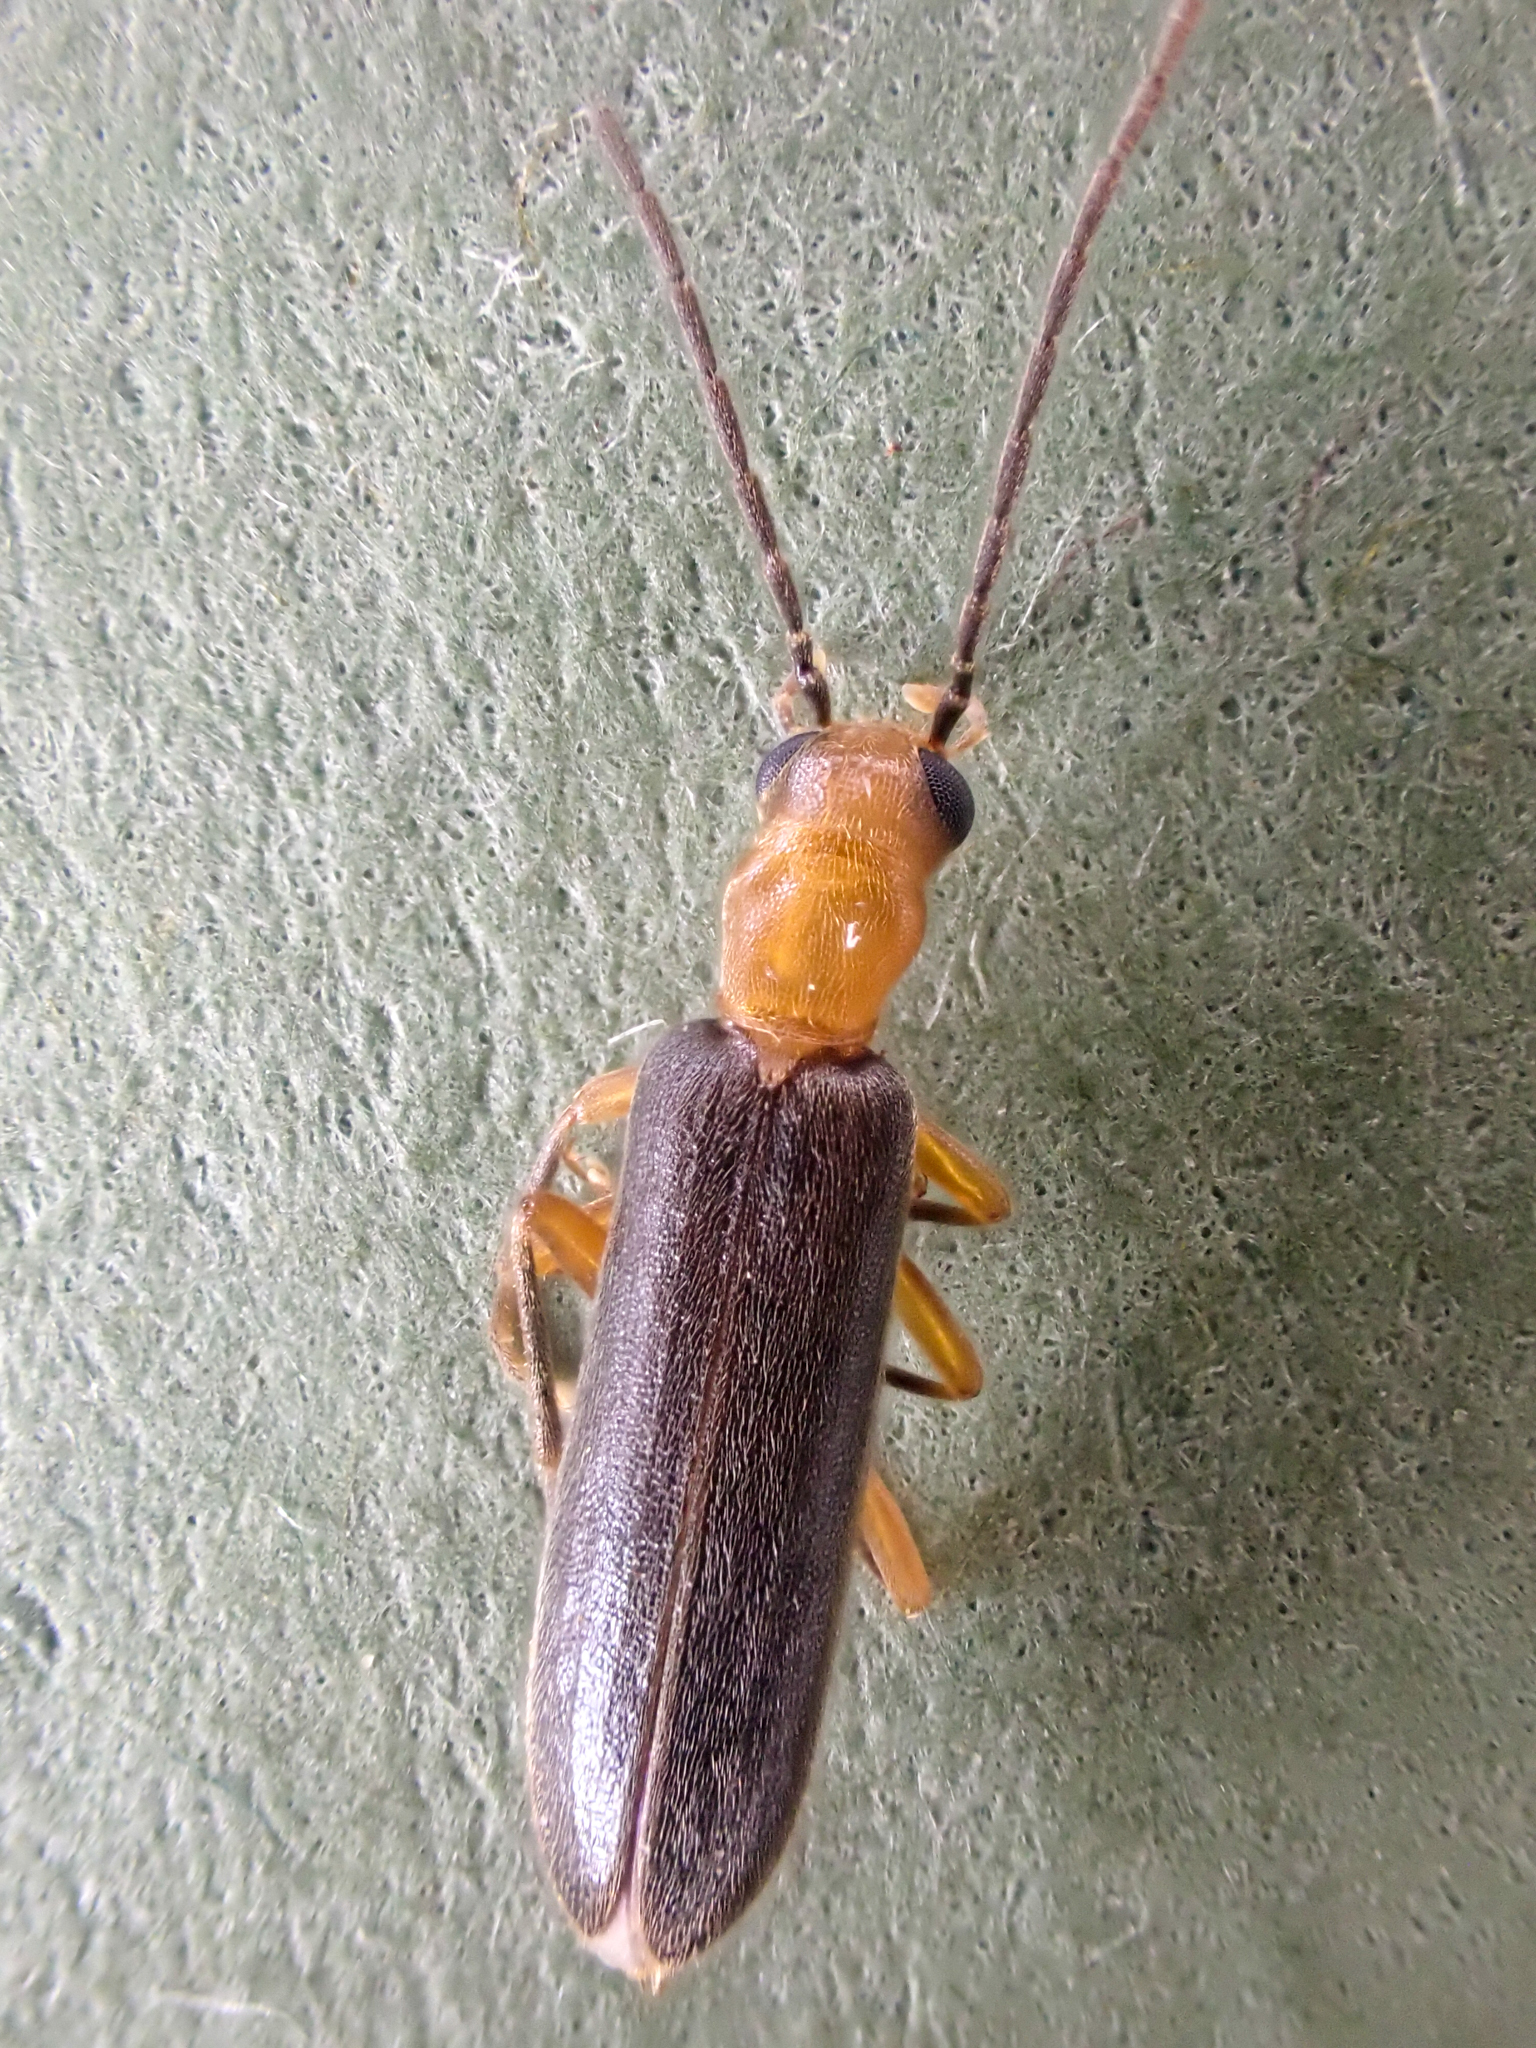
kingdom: Animalia
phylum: Arthropoda
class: Insecta
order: Coleoptera
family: Oedemeridae
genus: Xanthochroina
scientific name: Xanthochroina bicolor
